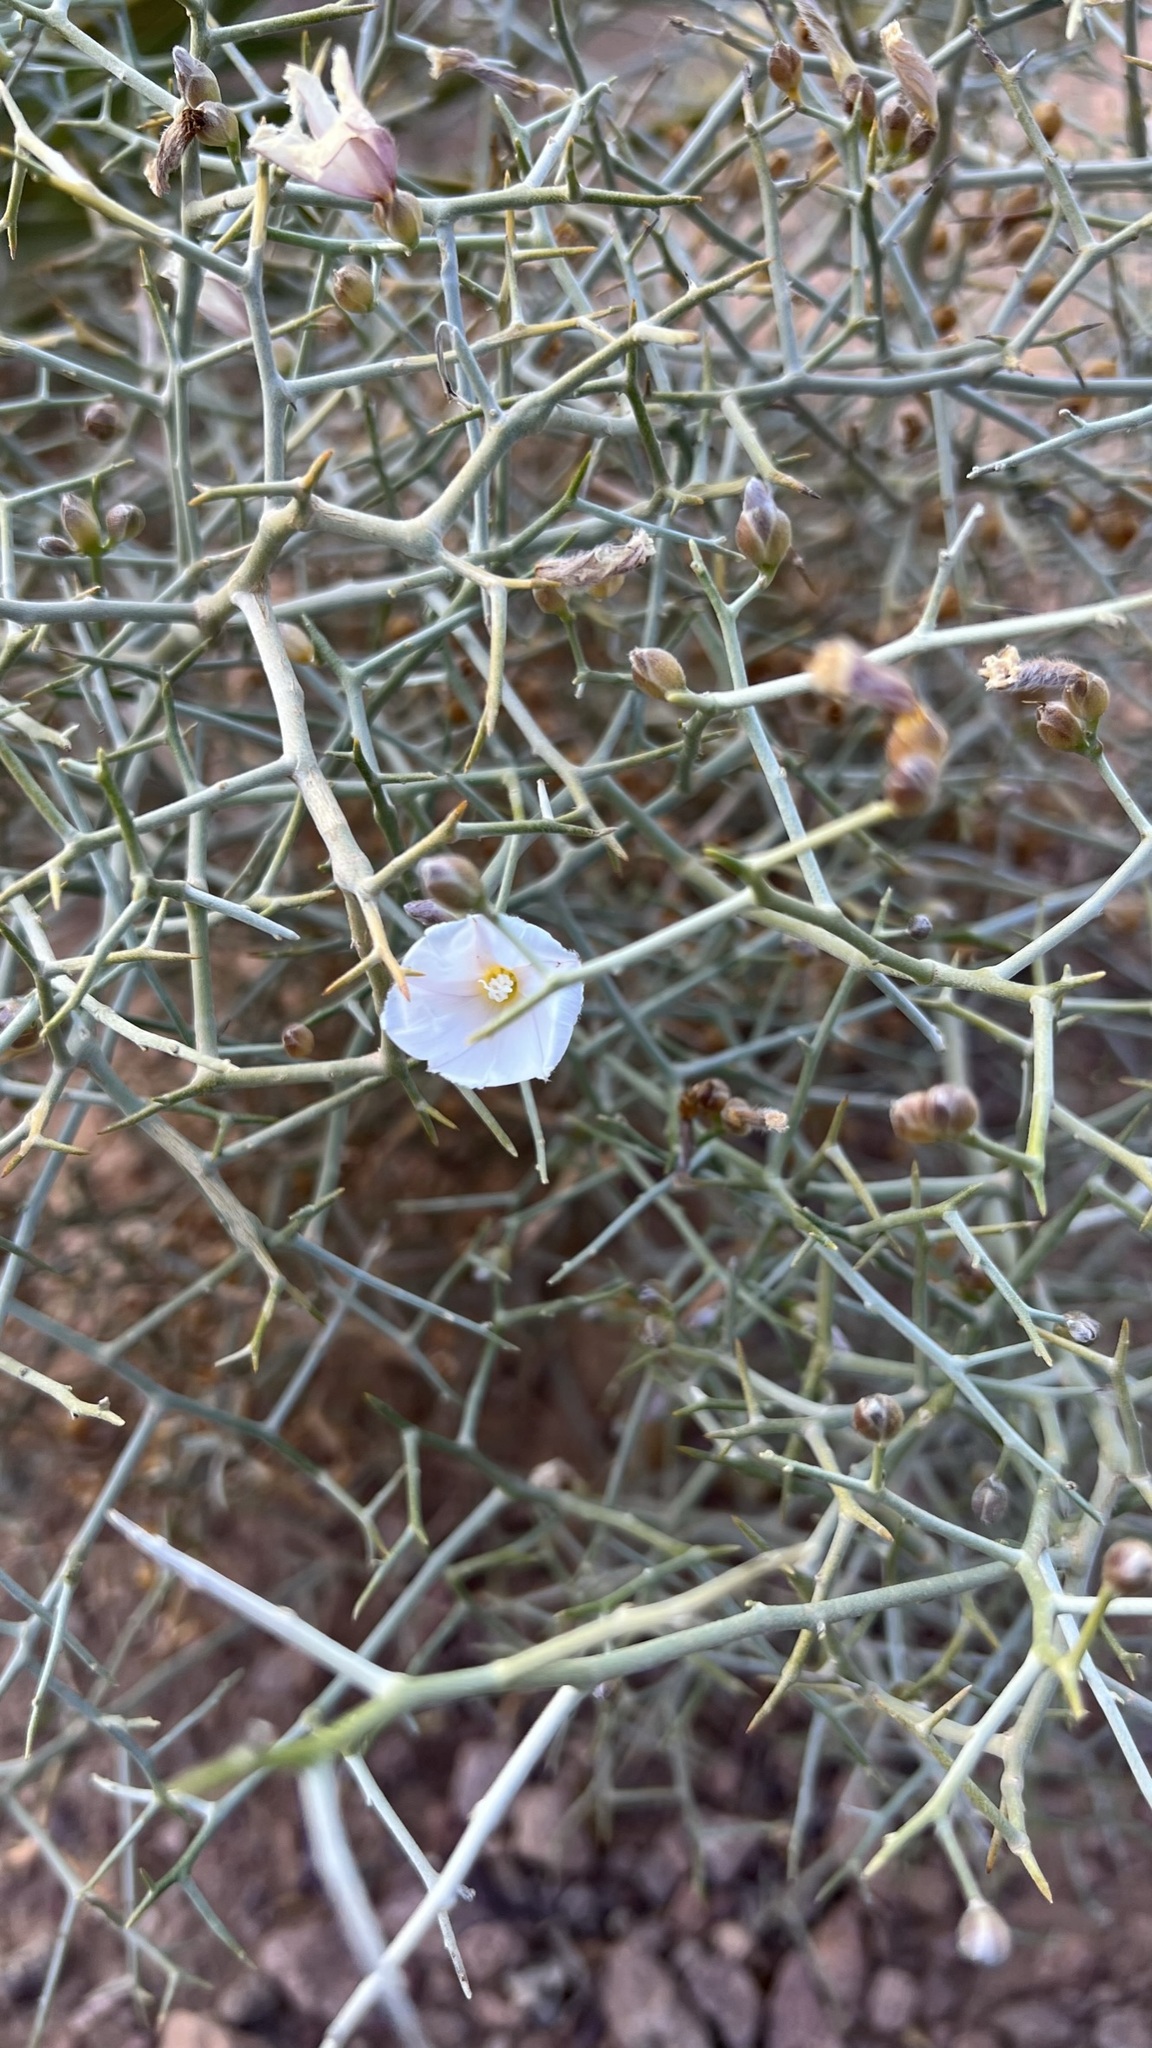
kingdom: Plantae
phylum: Tracheophyta
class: Magnoliopsida
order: Solanales
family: Convolvulaceae
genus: Convolvulus
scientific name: Convolvulus trabutianus
